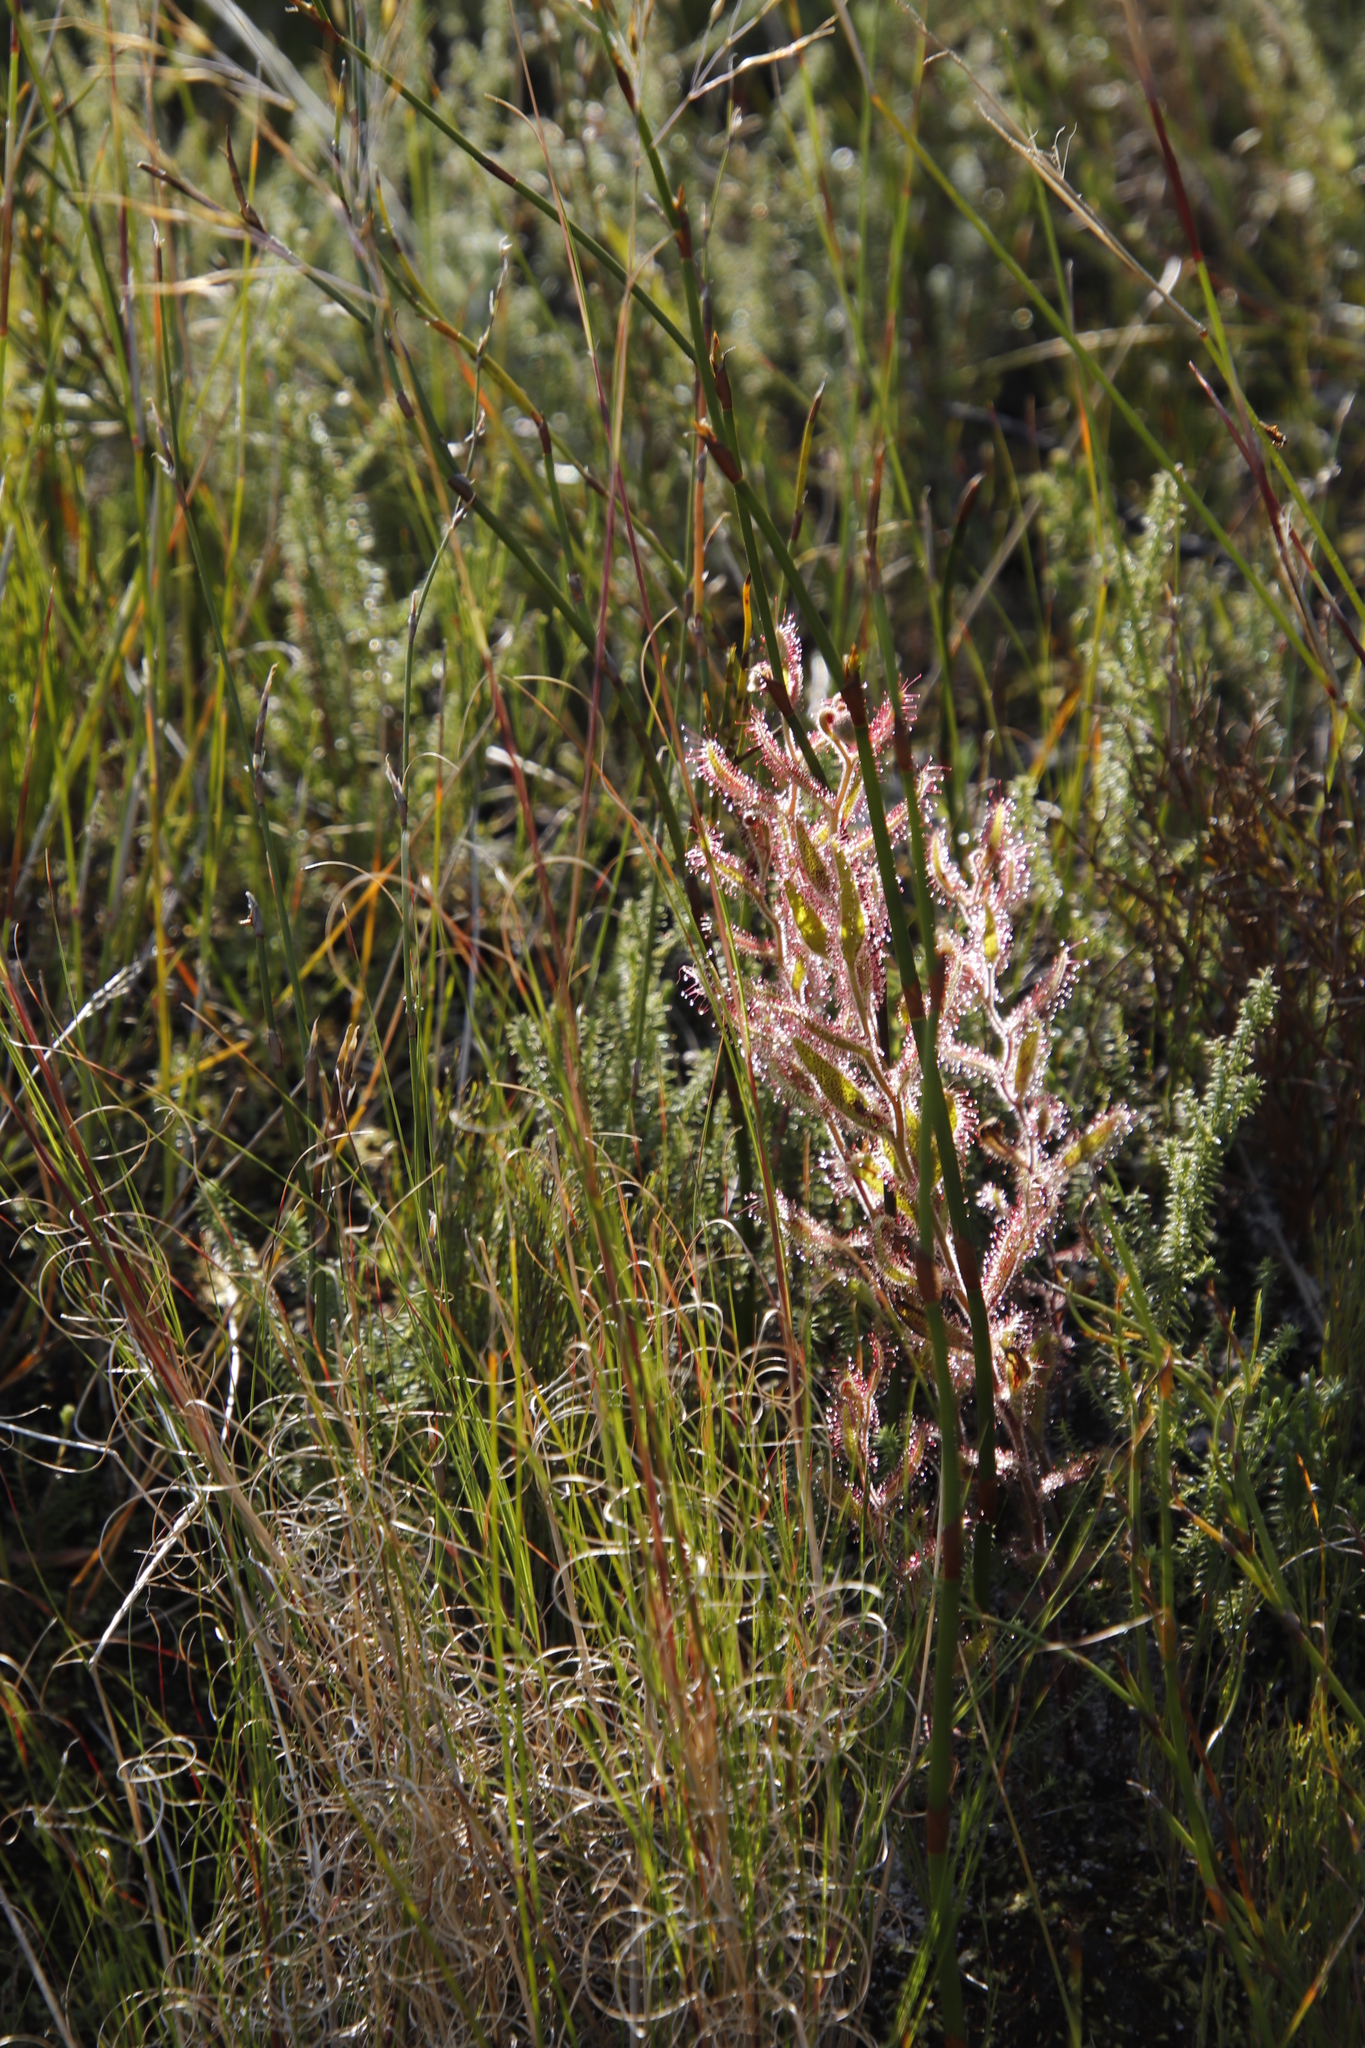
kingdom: Plantae
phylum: Tracheophyta
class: Magnoliopsida
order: Caryophyllales
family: Droseraceae
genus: Drosera
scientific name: Drosera cistiflora
